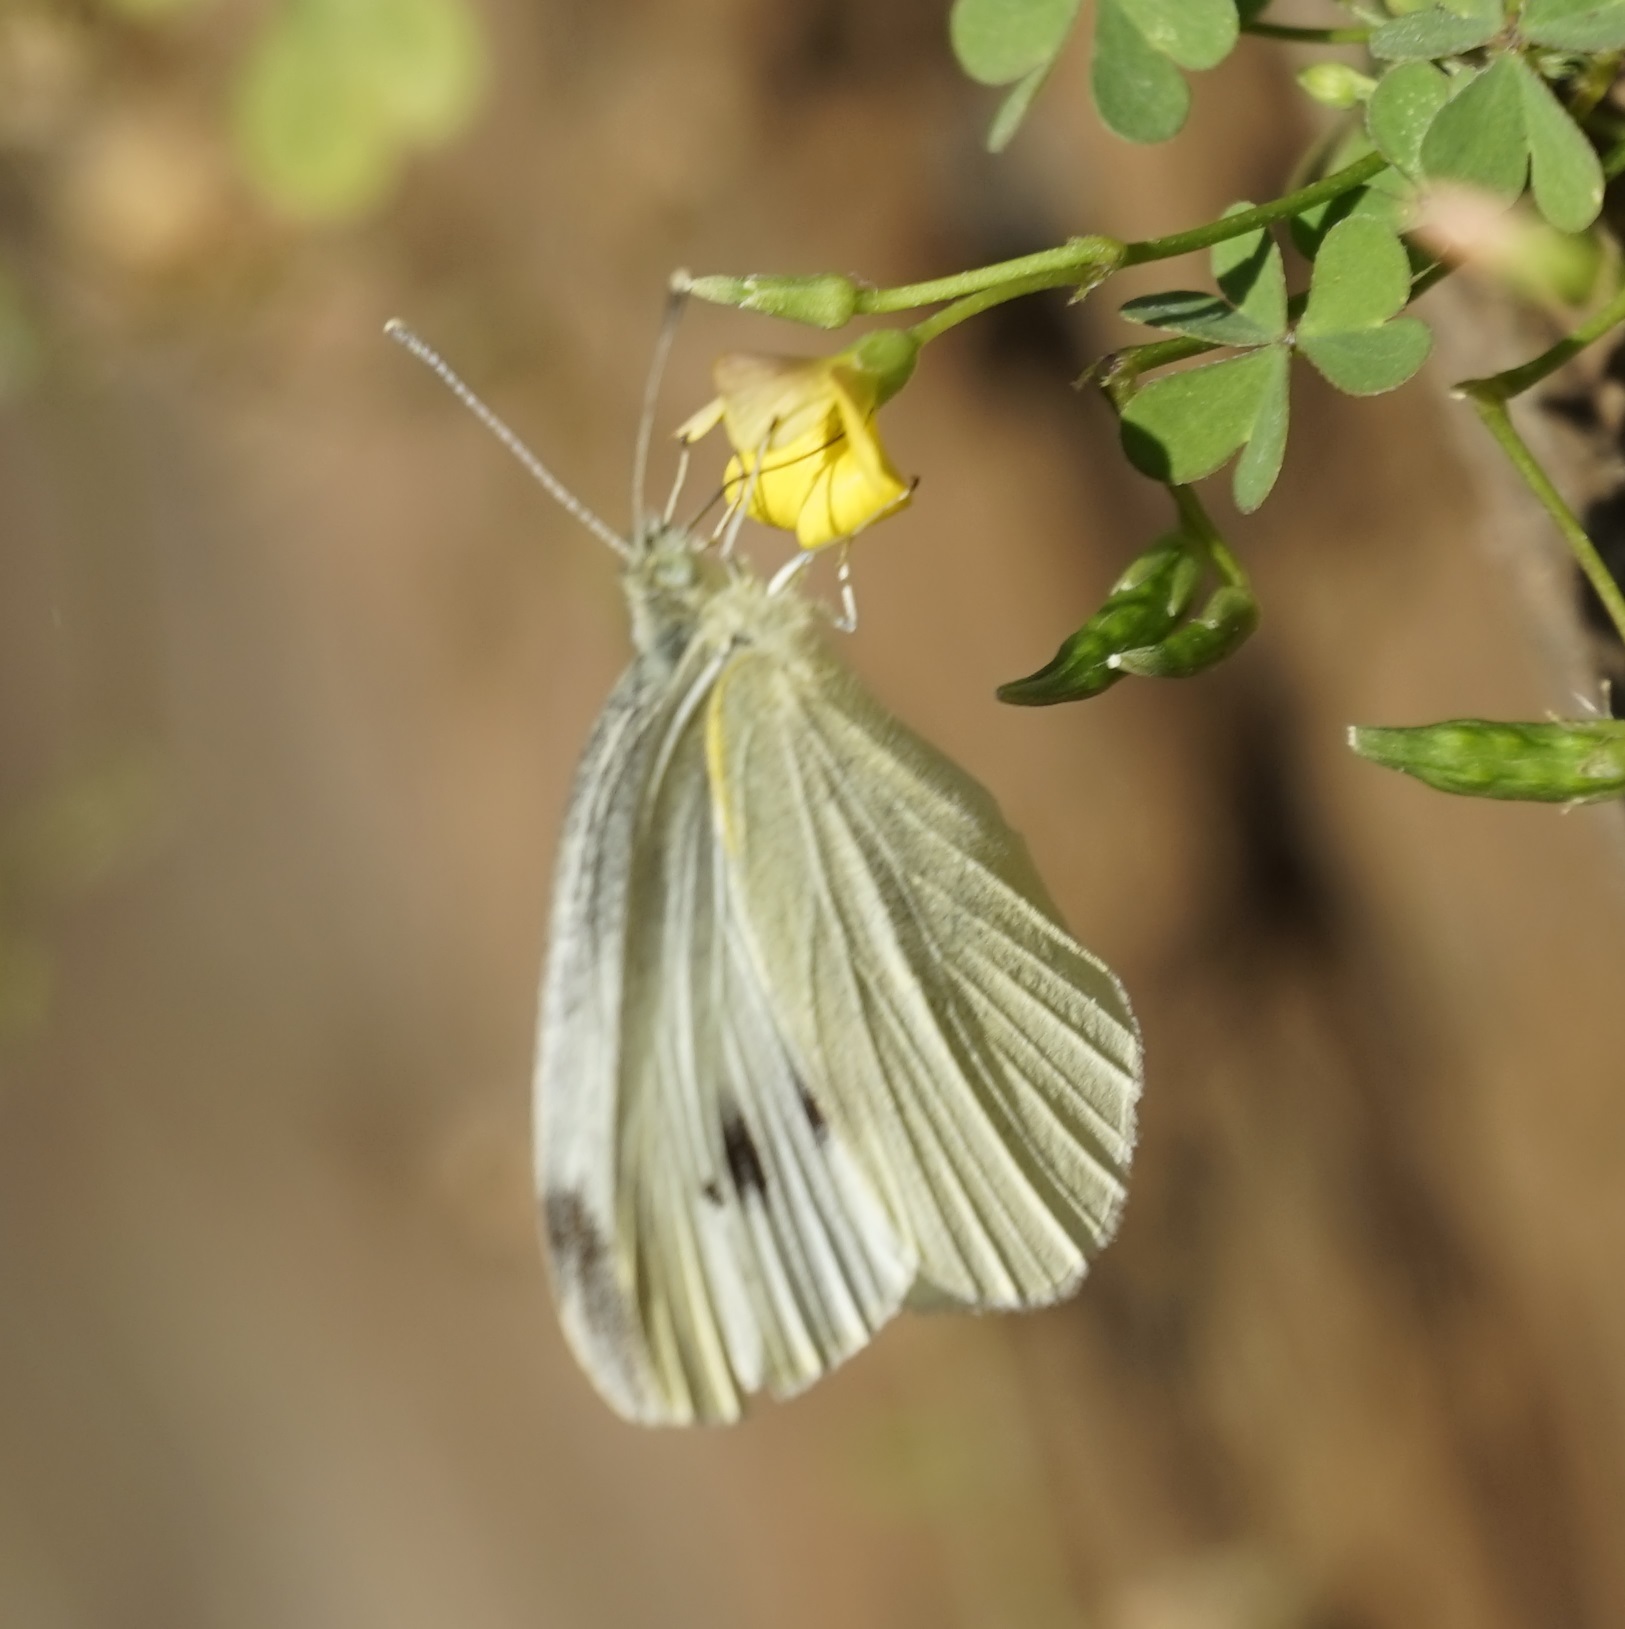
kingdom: Animalia
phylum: Arthropoda
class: Insecta
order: Lepidoptera
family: Pieridae
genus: Pieris
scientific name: Pieris rapae
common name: Small white
